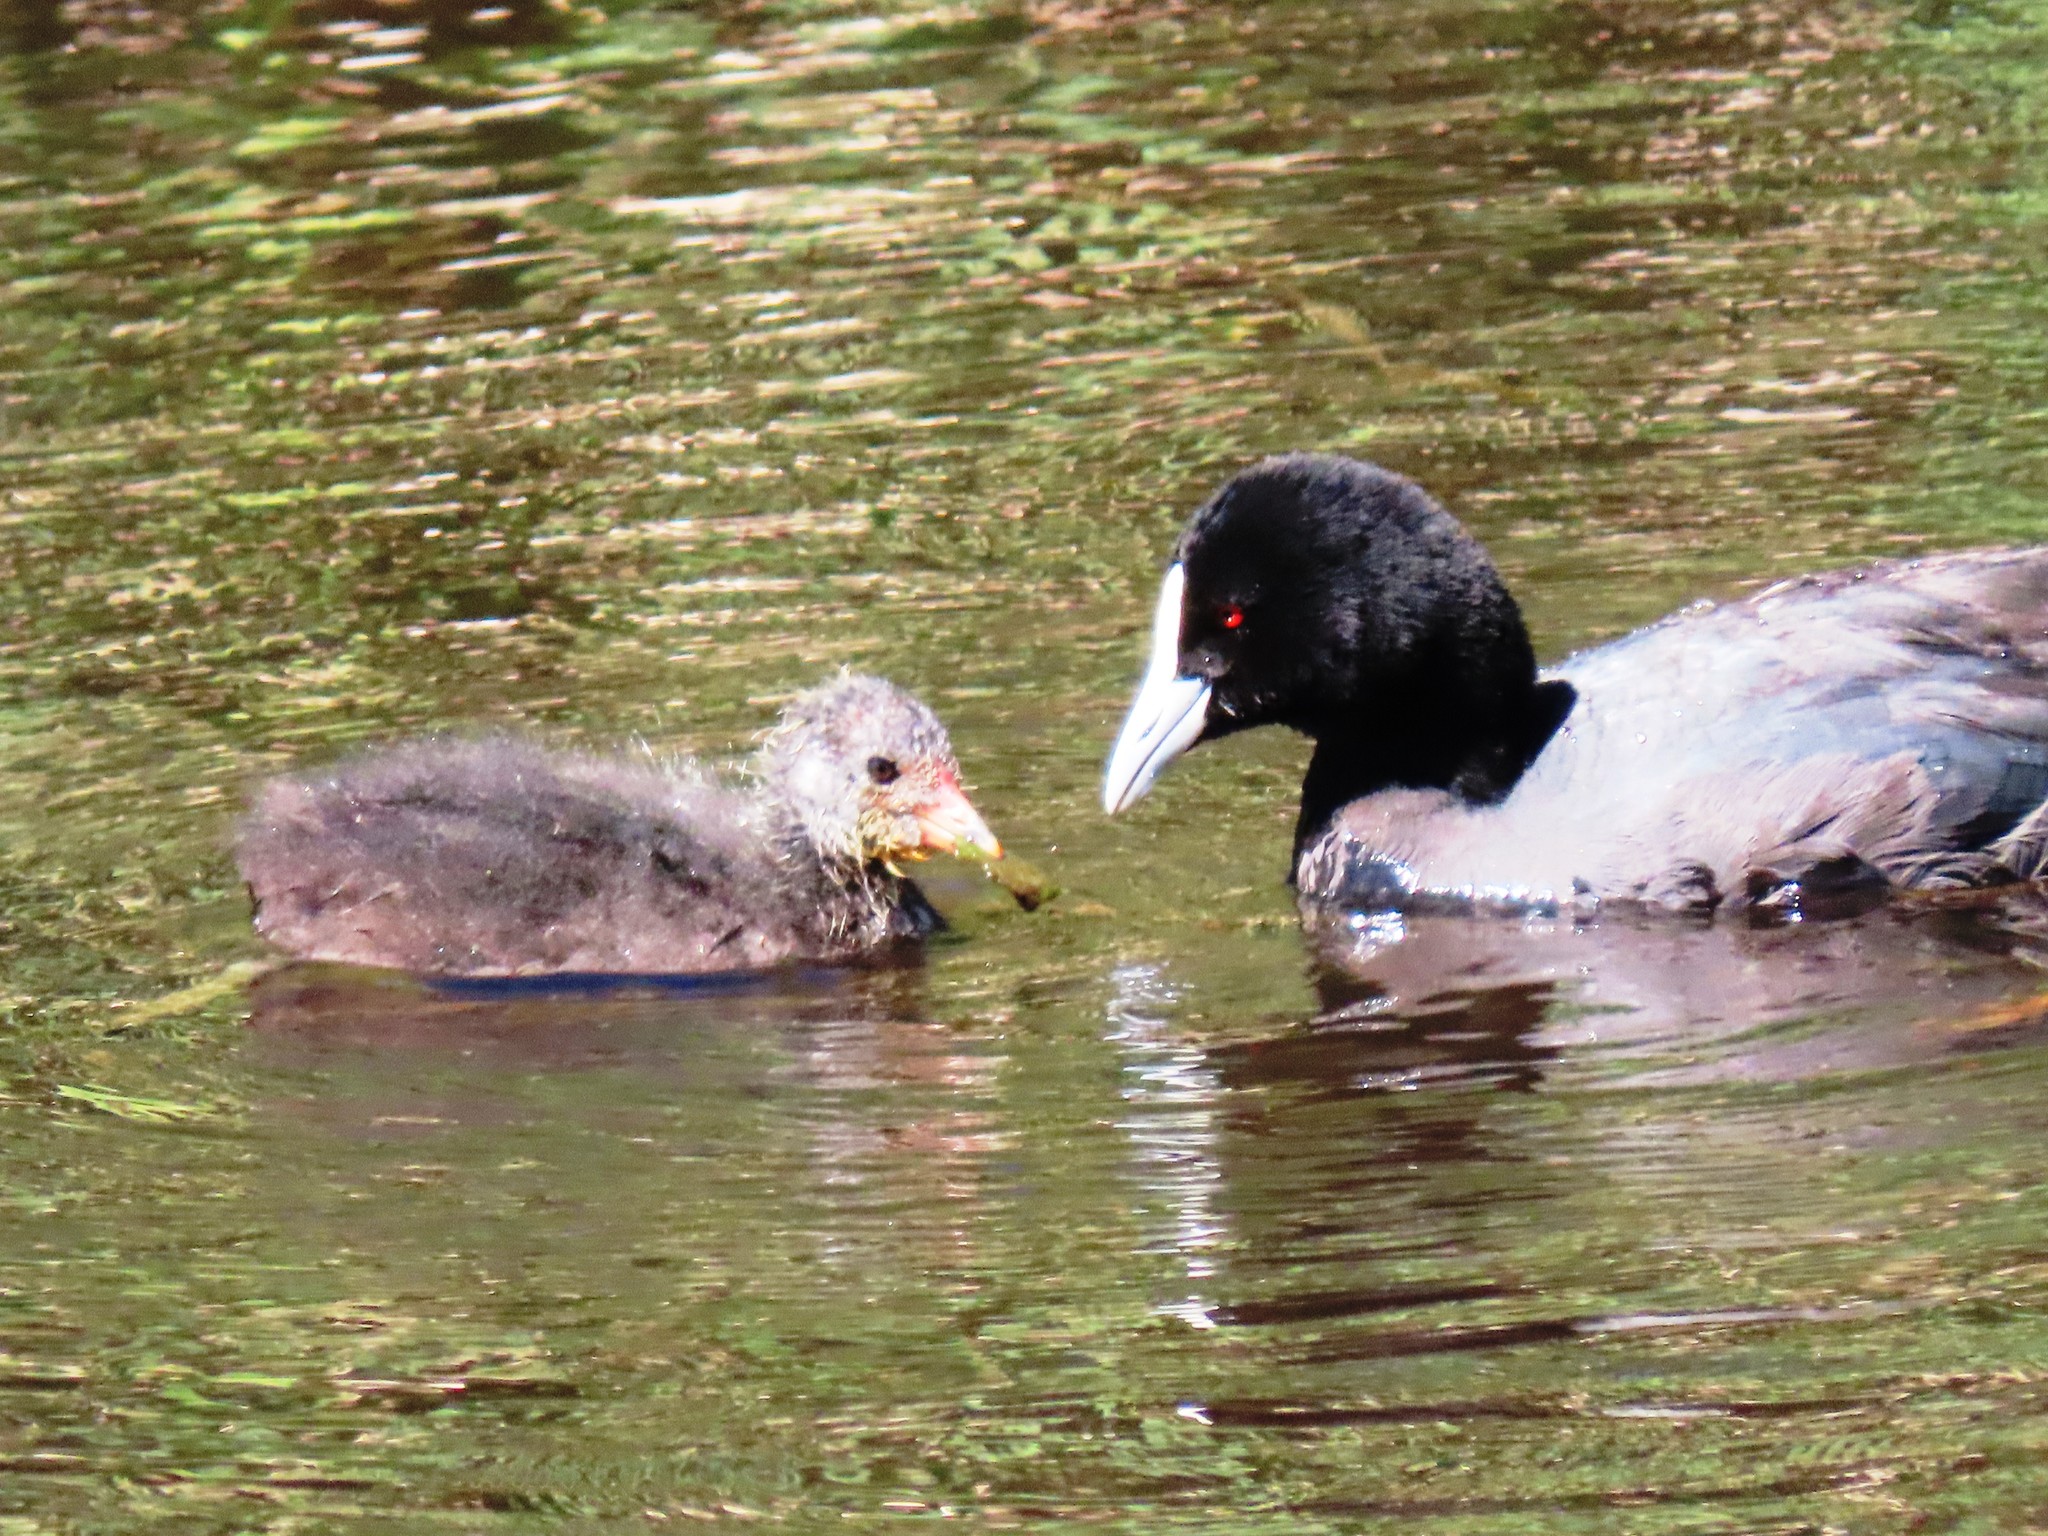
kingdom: Animalia
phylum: Chordata
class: Aves
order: Gruiformes
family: Rallidae
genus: Fulica
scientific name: Fulica atra
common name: Eurasian coot
